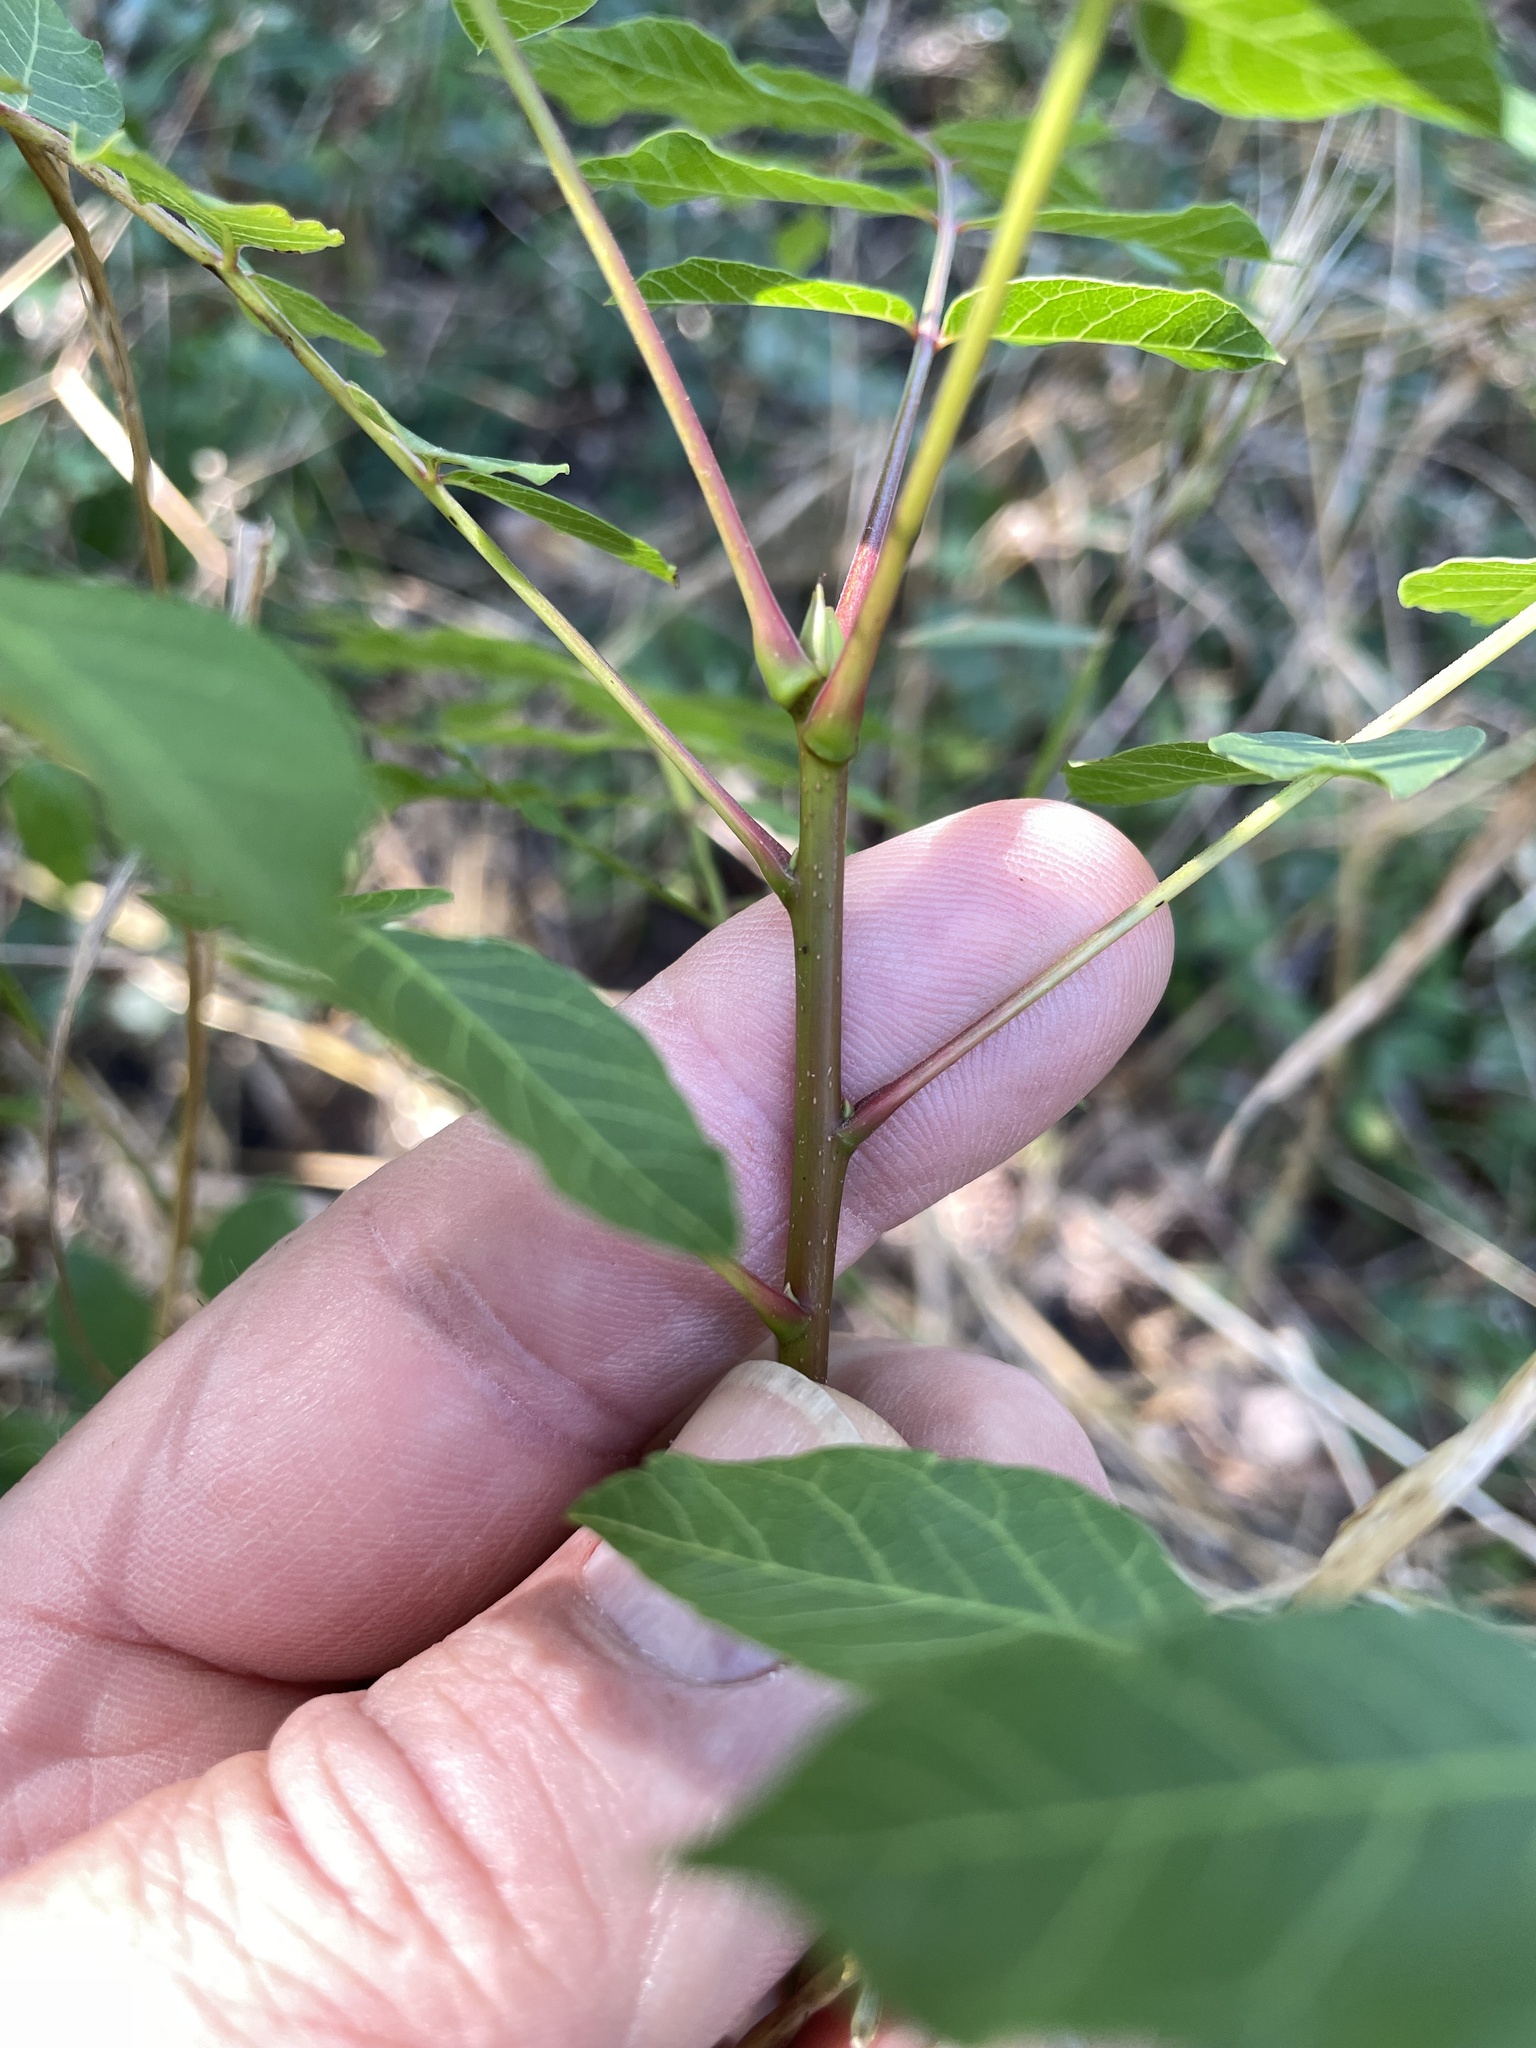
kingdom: Plantae
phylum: Tracheophyta
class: Magnoliopsida
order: Sapindales
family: Anacardiaceae
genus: Pistacia
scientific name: Pistacia chinensis
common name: Chinese pistache
